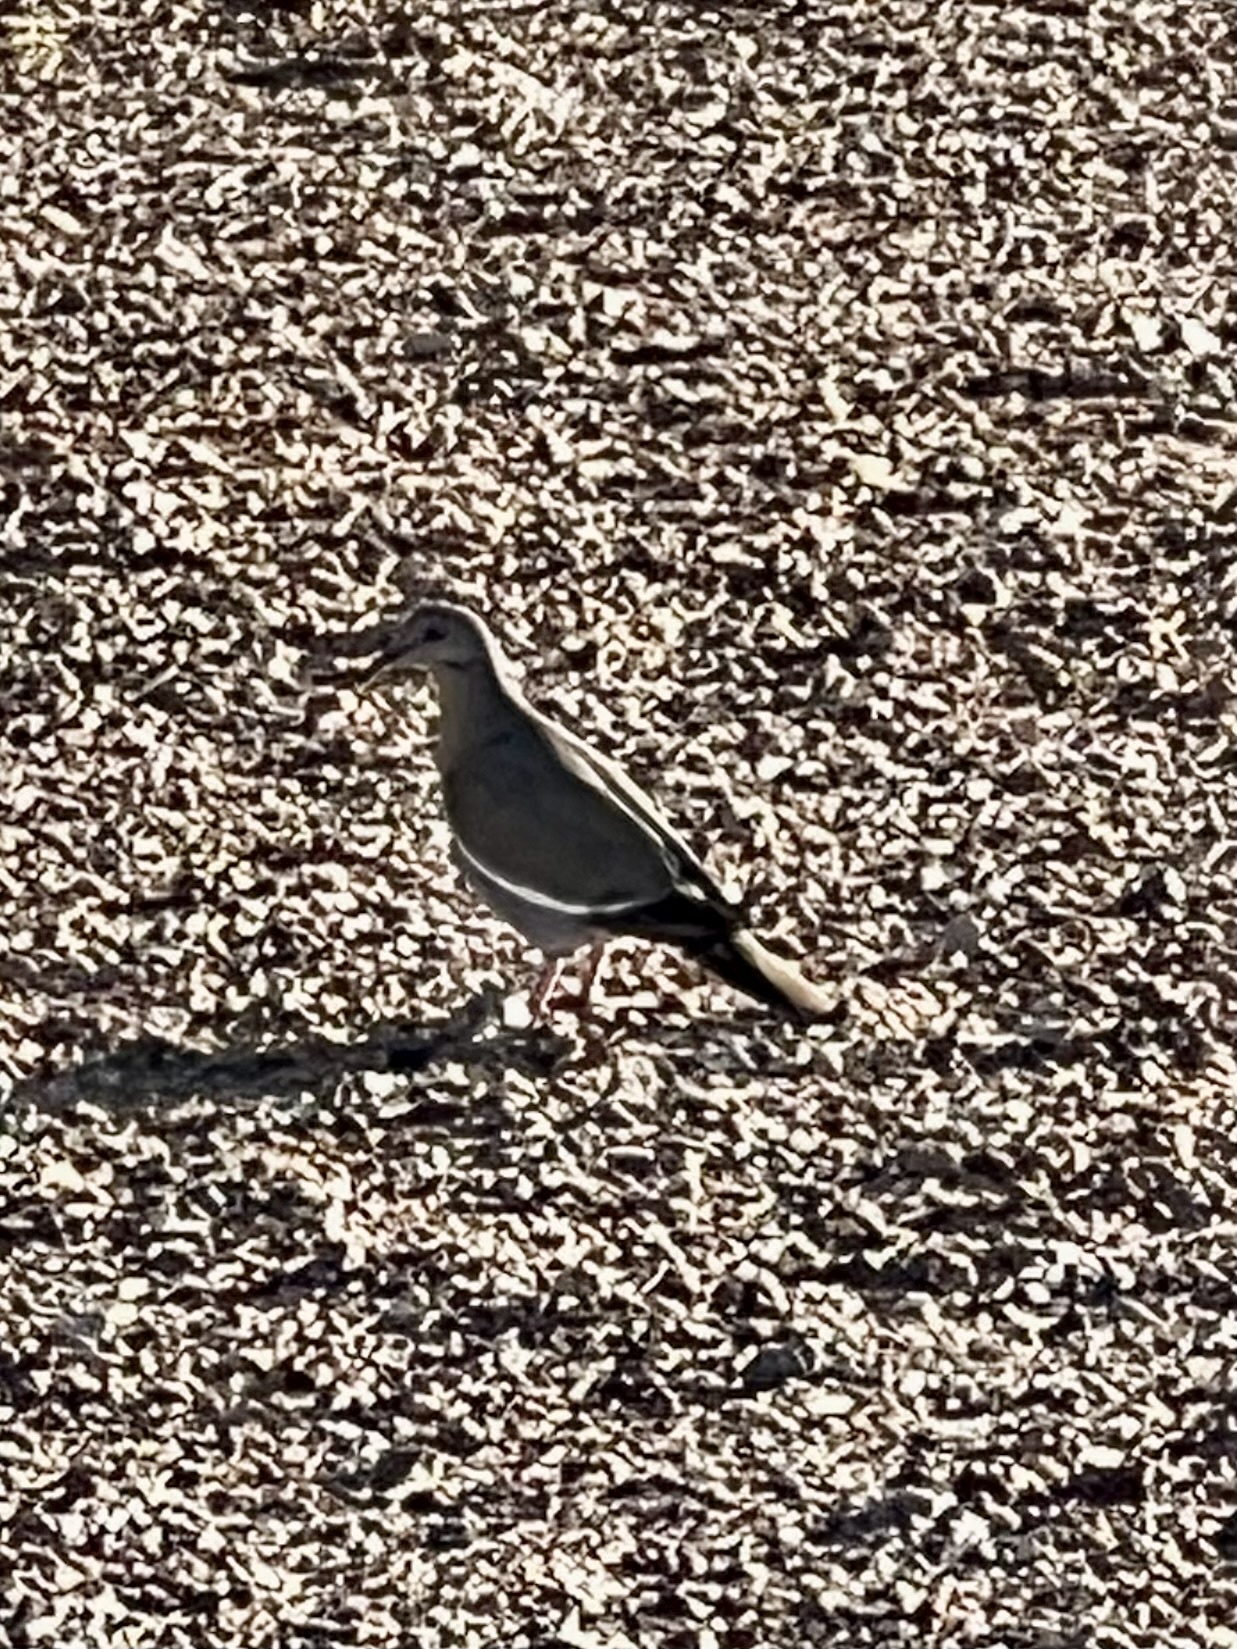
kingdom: Animalia
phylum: Chordata
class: Aves
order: Columbiformes
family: Columbidae
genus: Zenaida
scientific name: Zenaida asiatica
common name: White-winged dove
